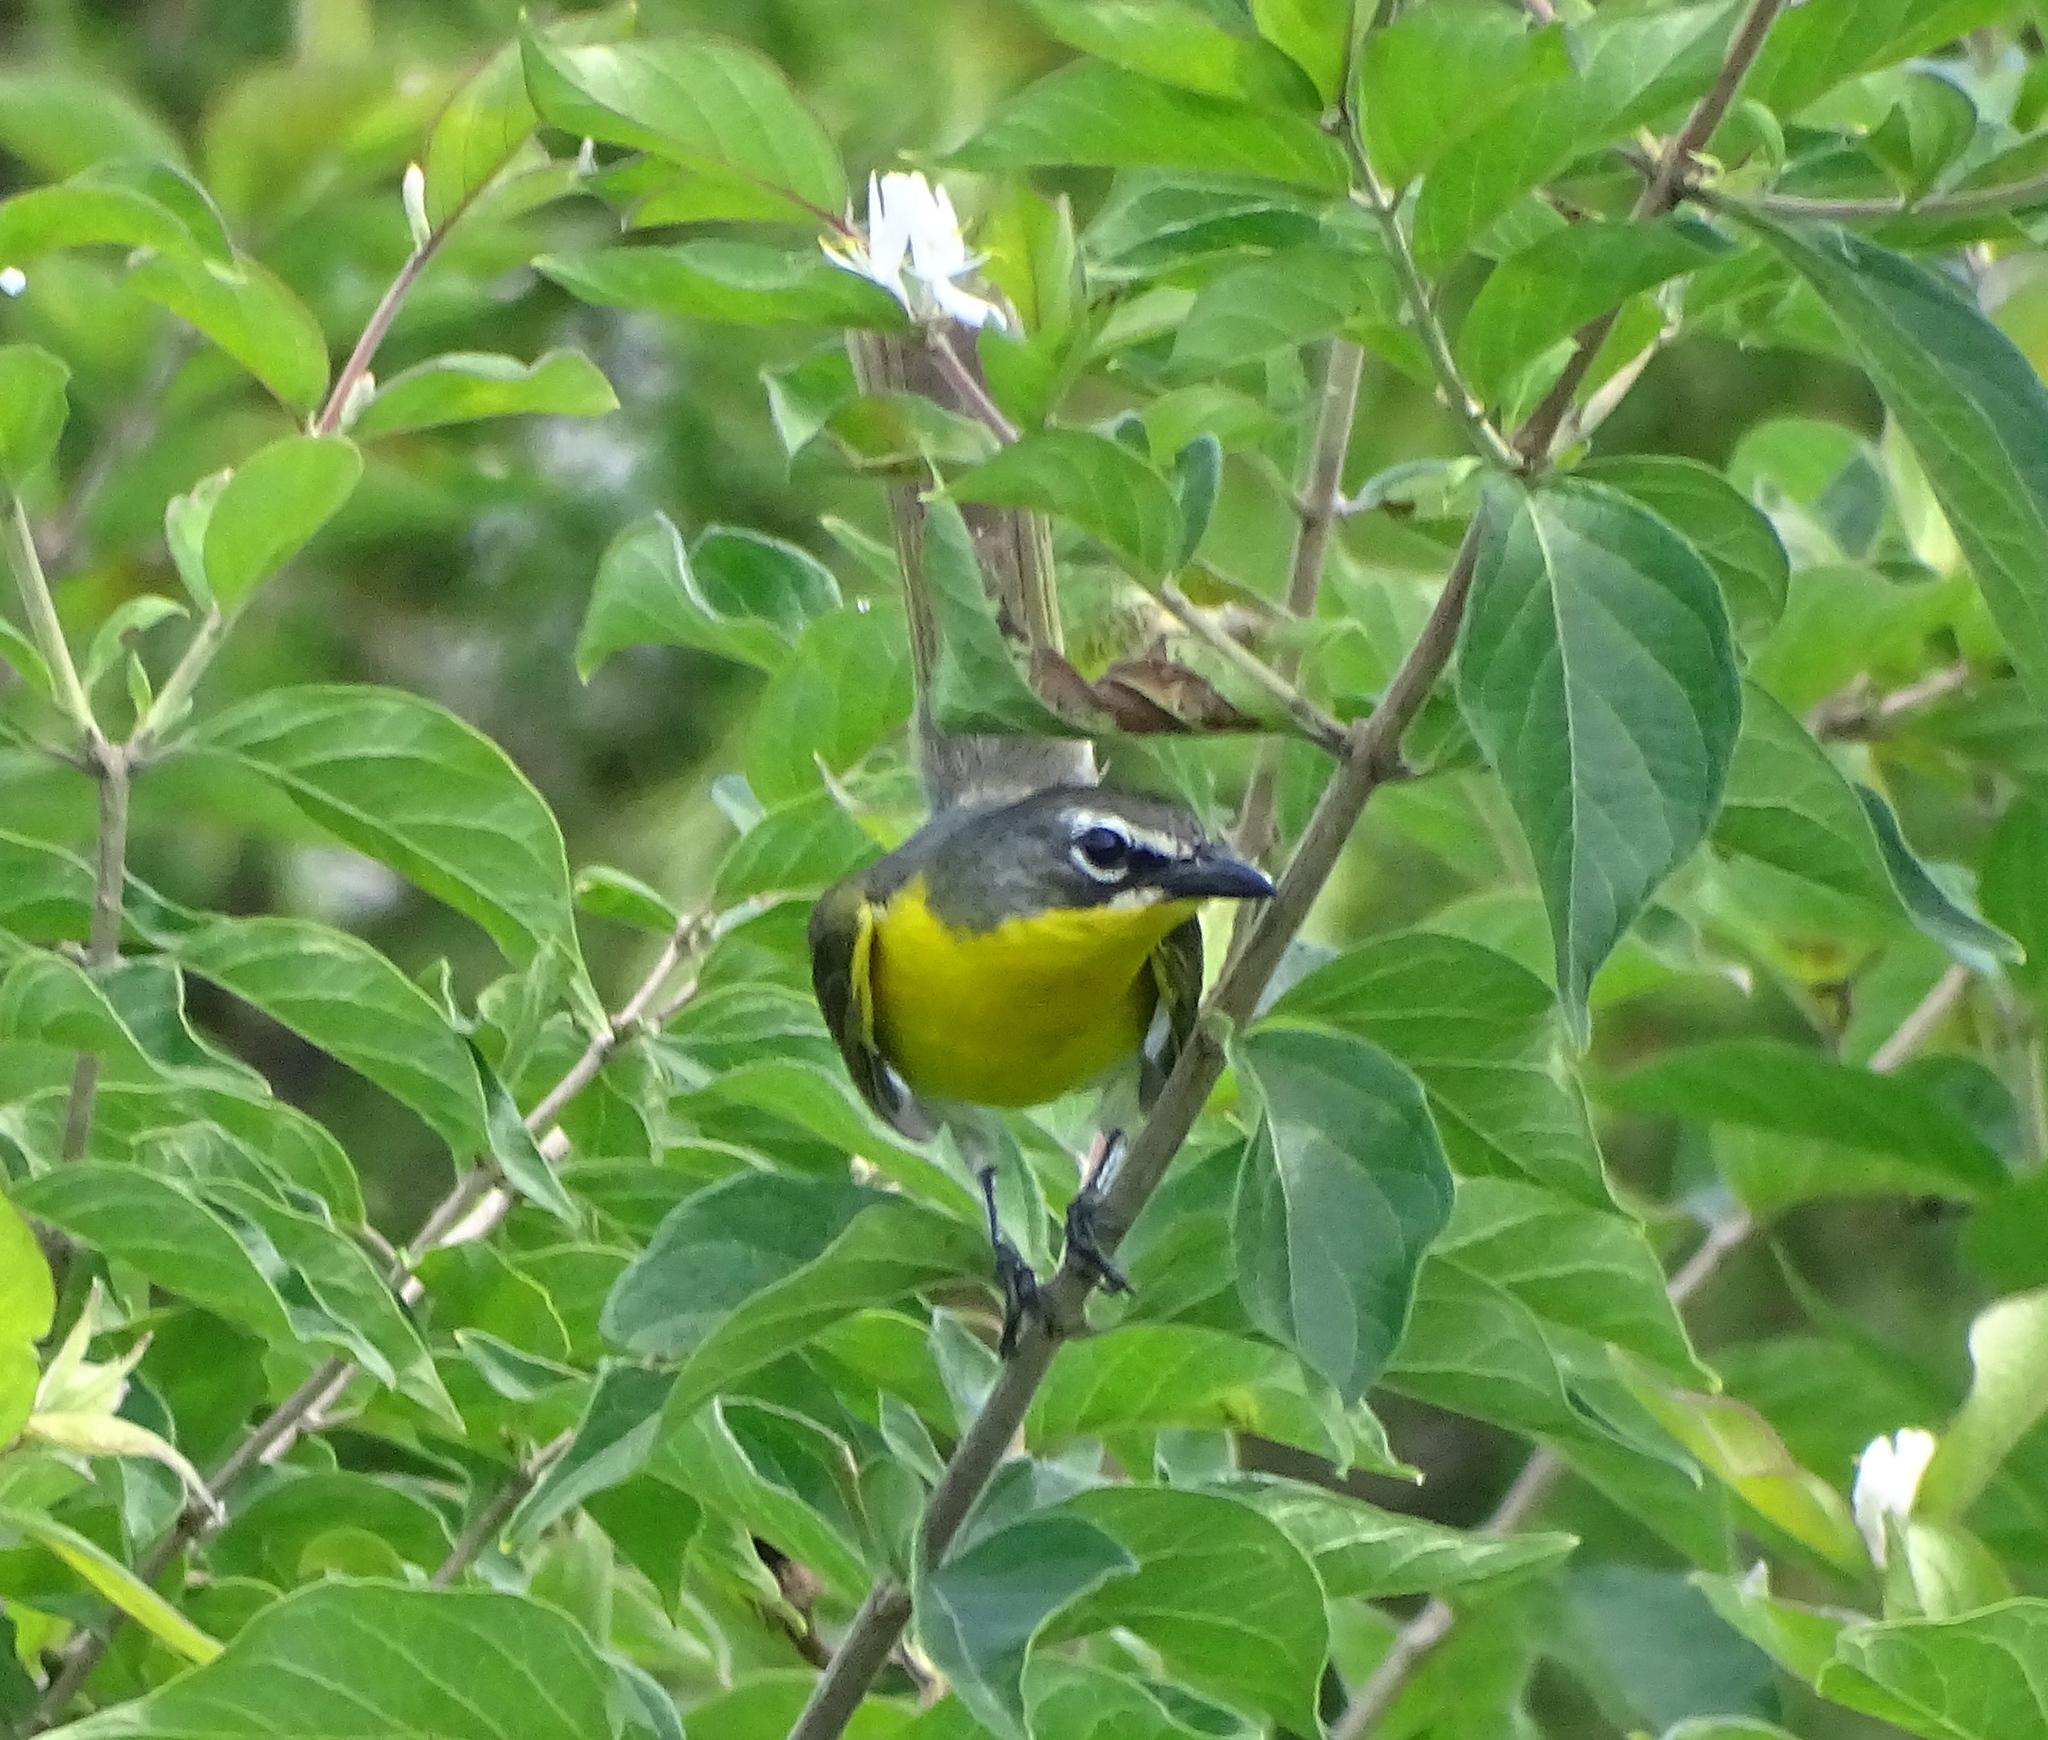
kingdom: Animalia
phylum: Chordata
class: Aves
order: Passeriformes
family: Parulidae
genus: Icteria
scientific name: Icteria virens
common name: Yellow-breasted chat
